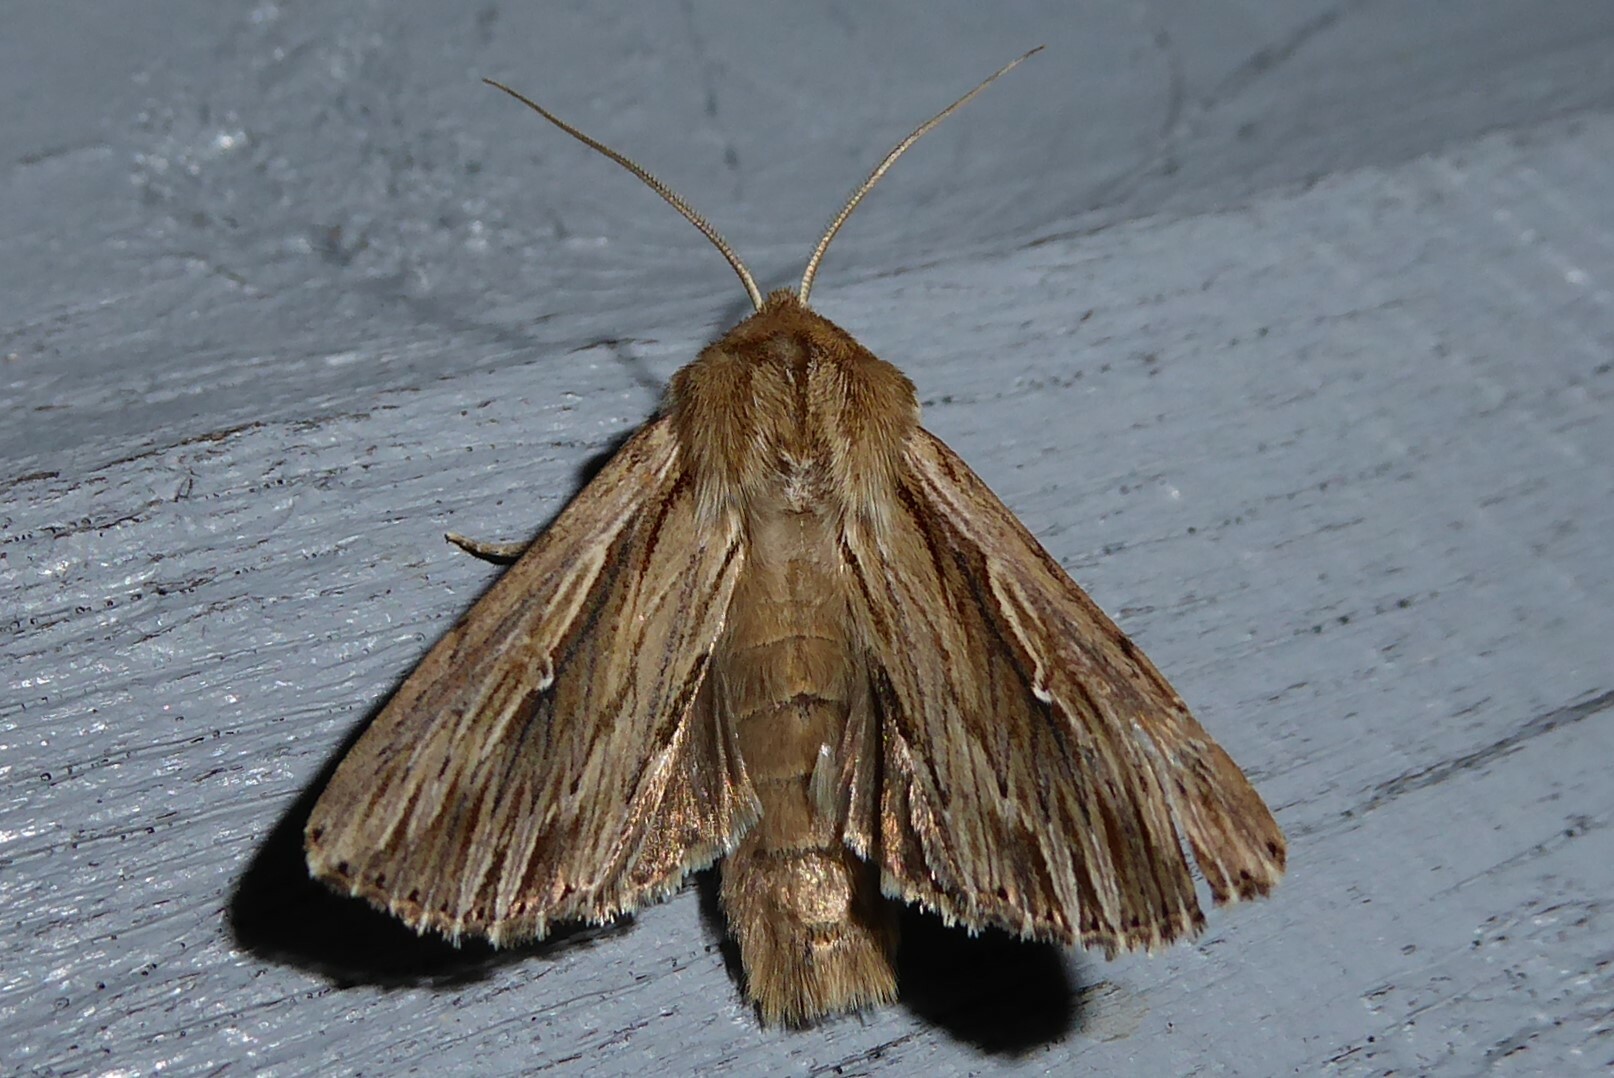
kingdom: Animalia
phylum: Arthropoda
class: Insecta
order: Lepidoptera
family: Noctuidae
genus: Persectania
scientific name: Persectania aversa
